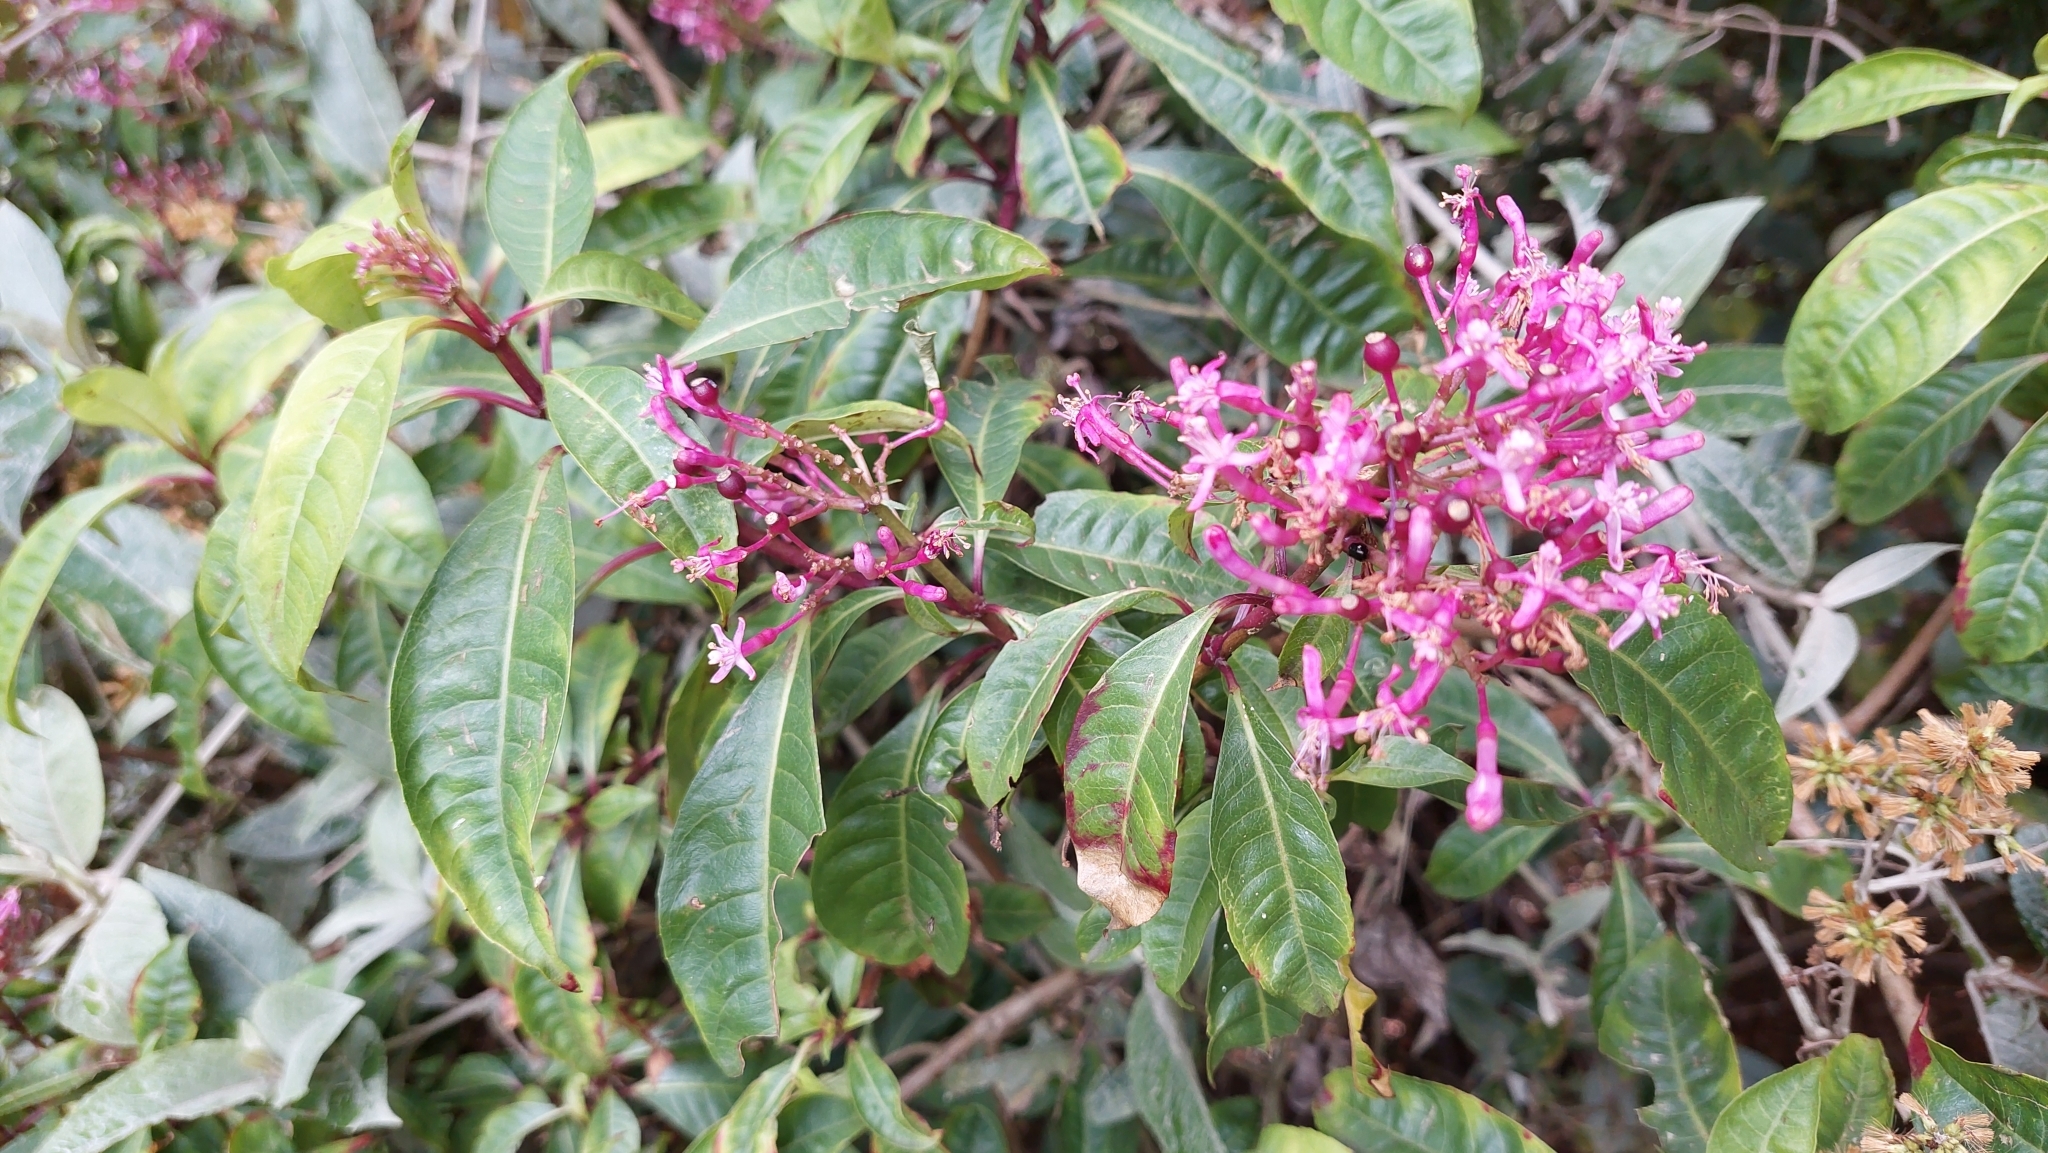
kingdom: Plantae
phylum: Tracheophyta
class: Magnoliopsida
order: Myrtales
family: Onagraceae
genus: Fuchsia
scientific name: Fuchsia paniculata
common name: Shrubby fuchsia
